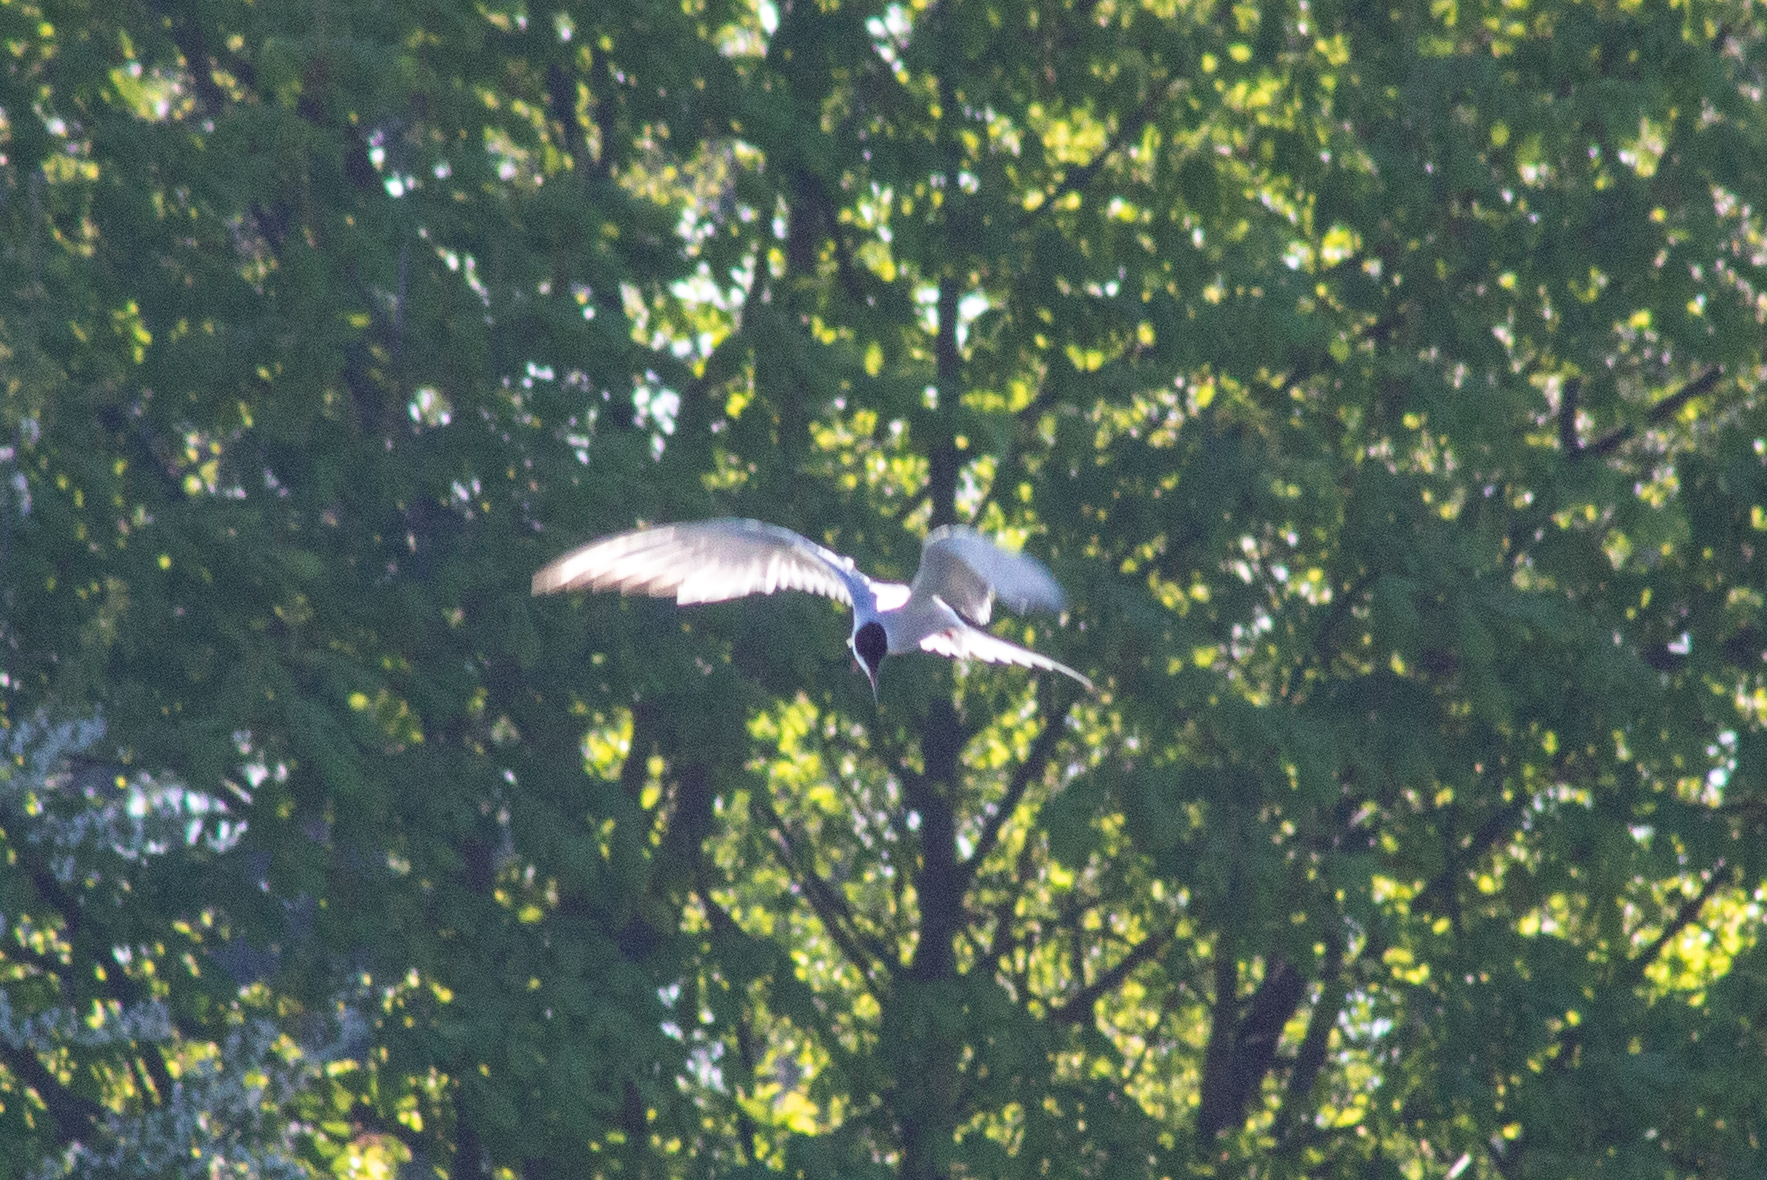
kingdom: Animalia
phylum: Chordata
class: Aves
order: Charadriiformes
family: Laridae
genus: Sterna
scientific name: Sterna hirundo
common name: Common tern
